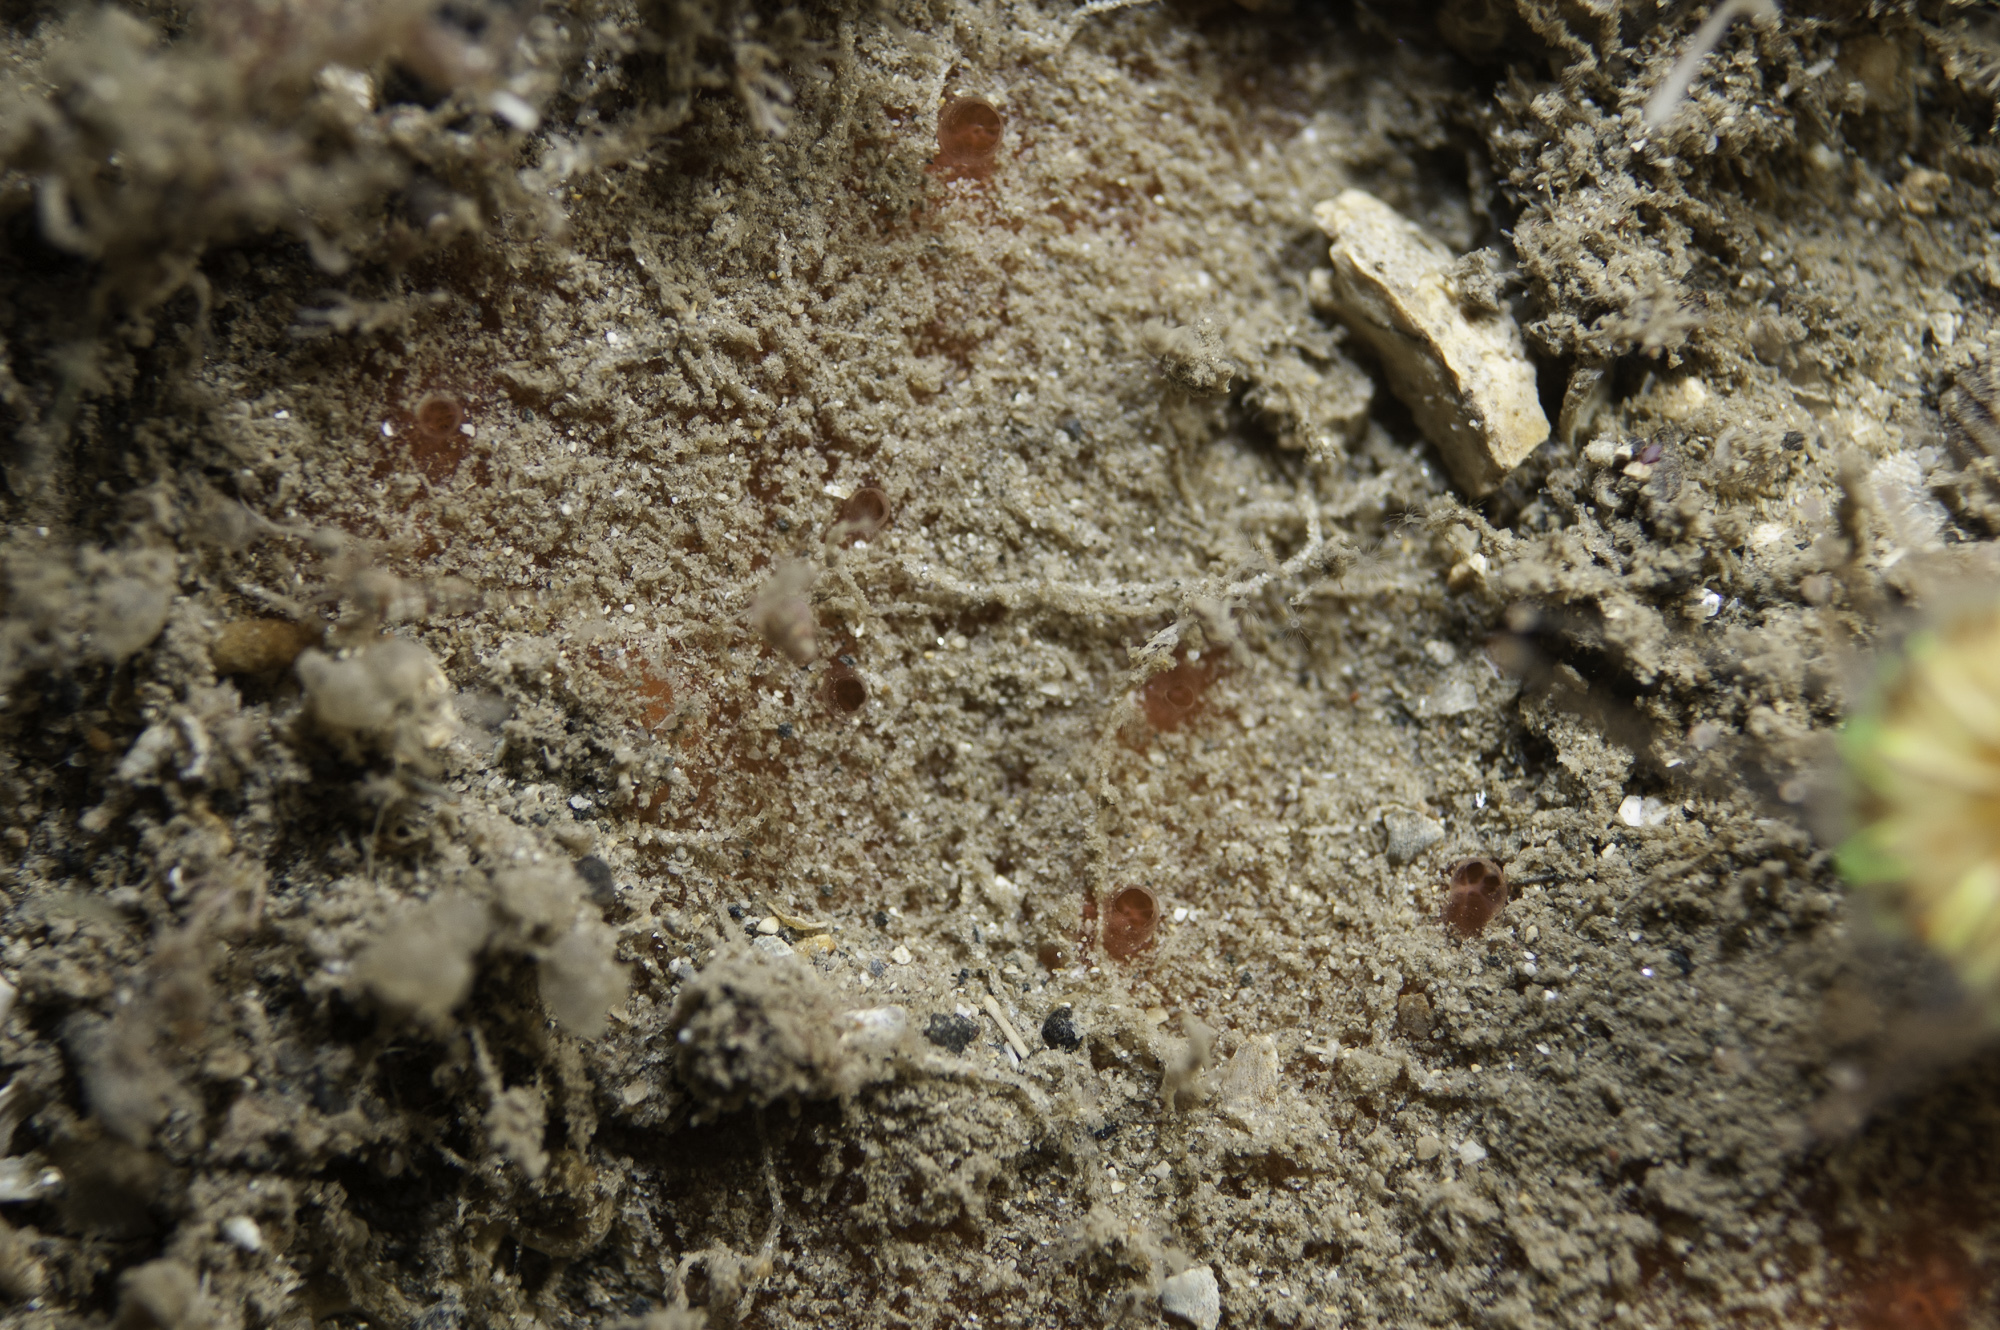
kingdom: Animalia
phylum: Porifera
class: Demospongiae
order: Axinellida
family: Raspailiidae
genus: Hymeraphia
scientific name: Hymeraphia stellifera
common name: Star horny sponge
